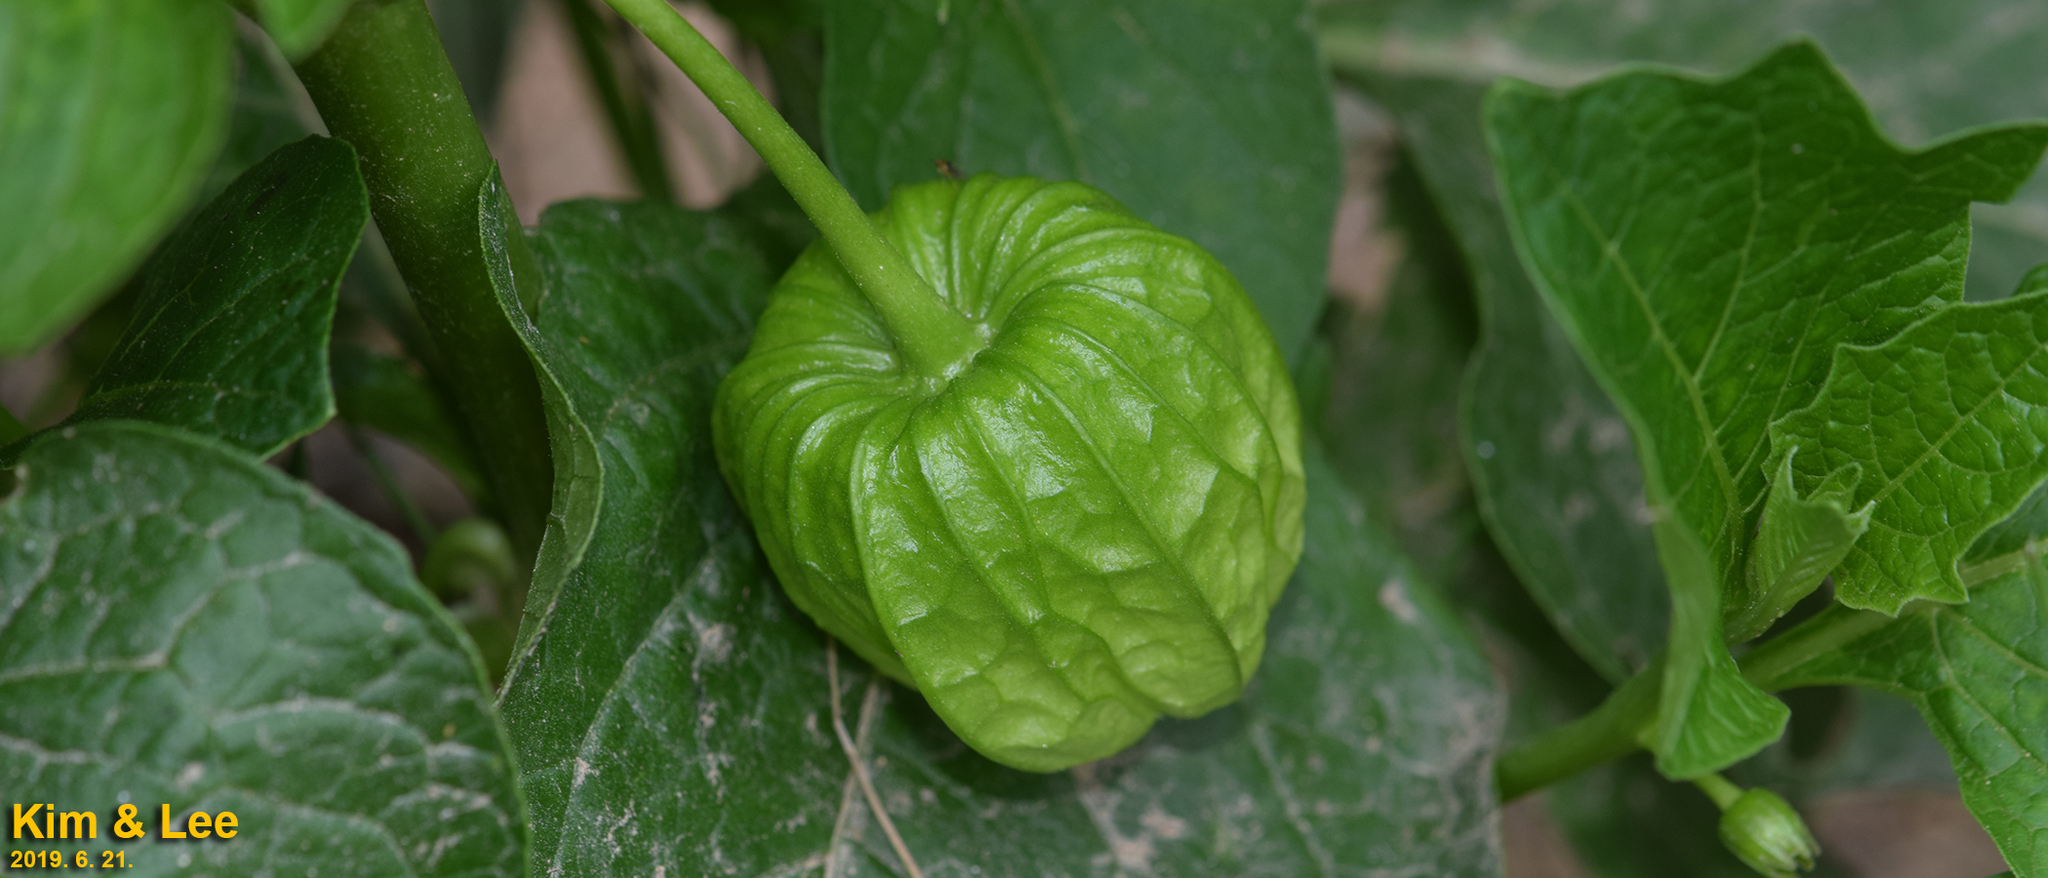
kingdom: Plantae
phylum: Tracheophyta
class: Magnoliopsida
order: Solanales
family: Solanaceae
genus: Alkekengi
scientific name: Alkekengi officinarum
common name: Japanese-lantern
